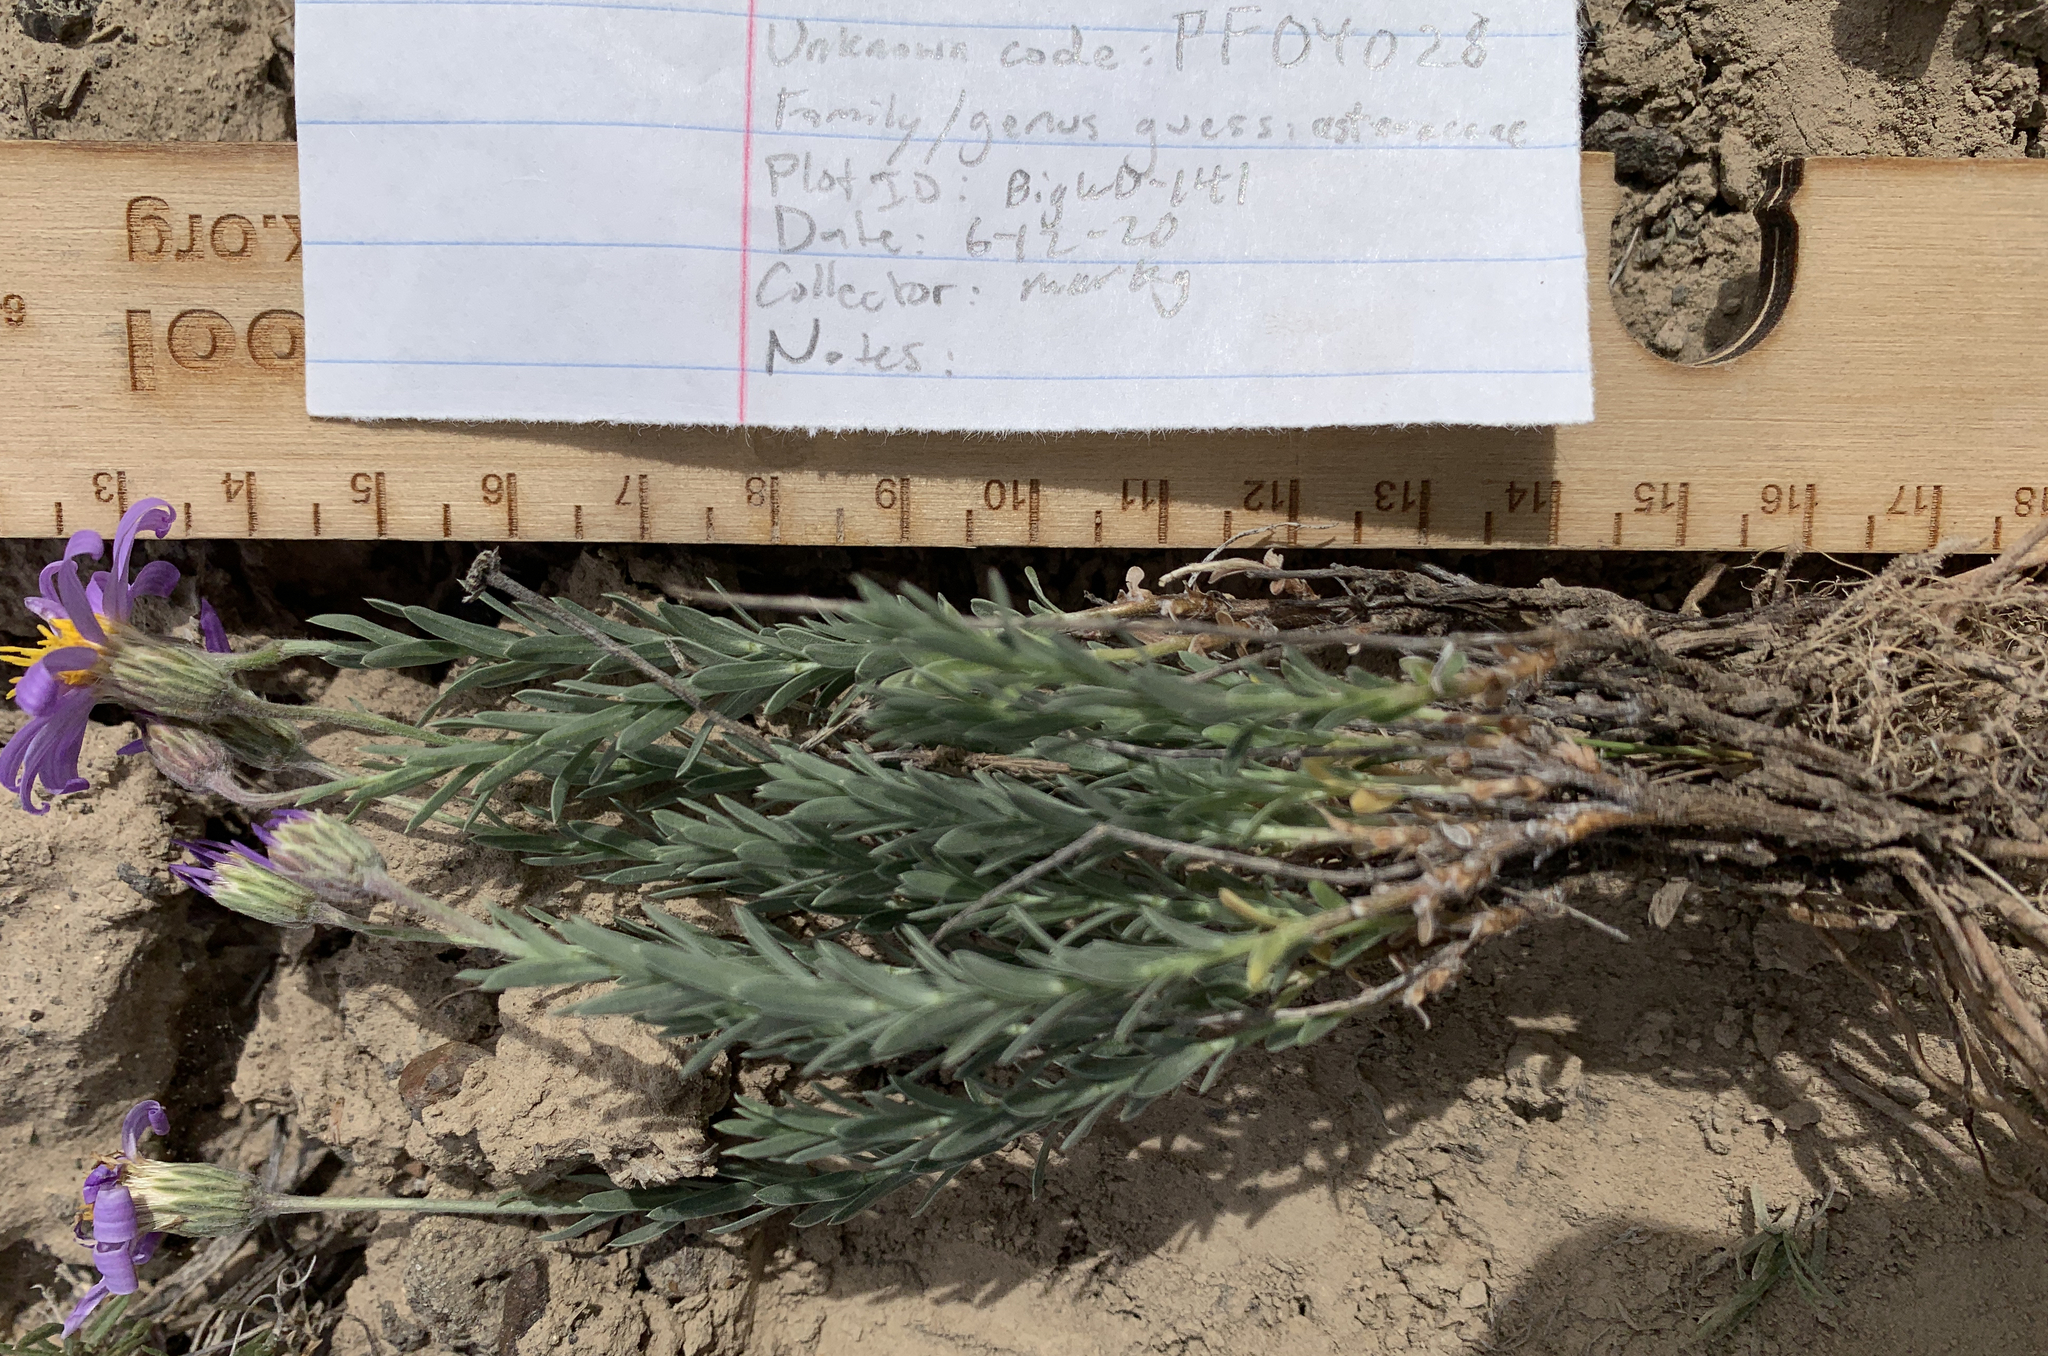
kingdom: Plantae
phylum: Tracheophyta
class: Magnoliopsida
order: Asterales
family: Asteraceae
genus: Ionactis
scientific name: Ionactis alpina
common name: Crag aster
